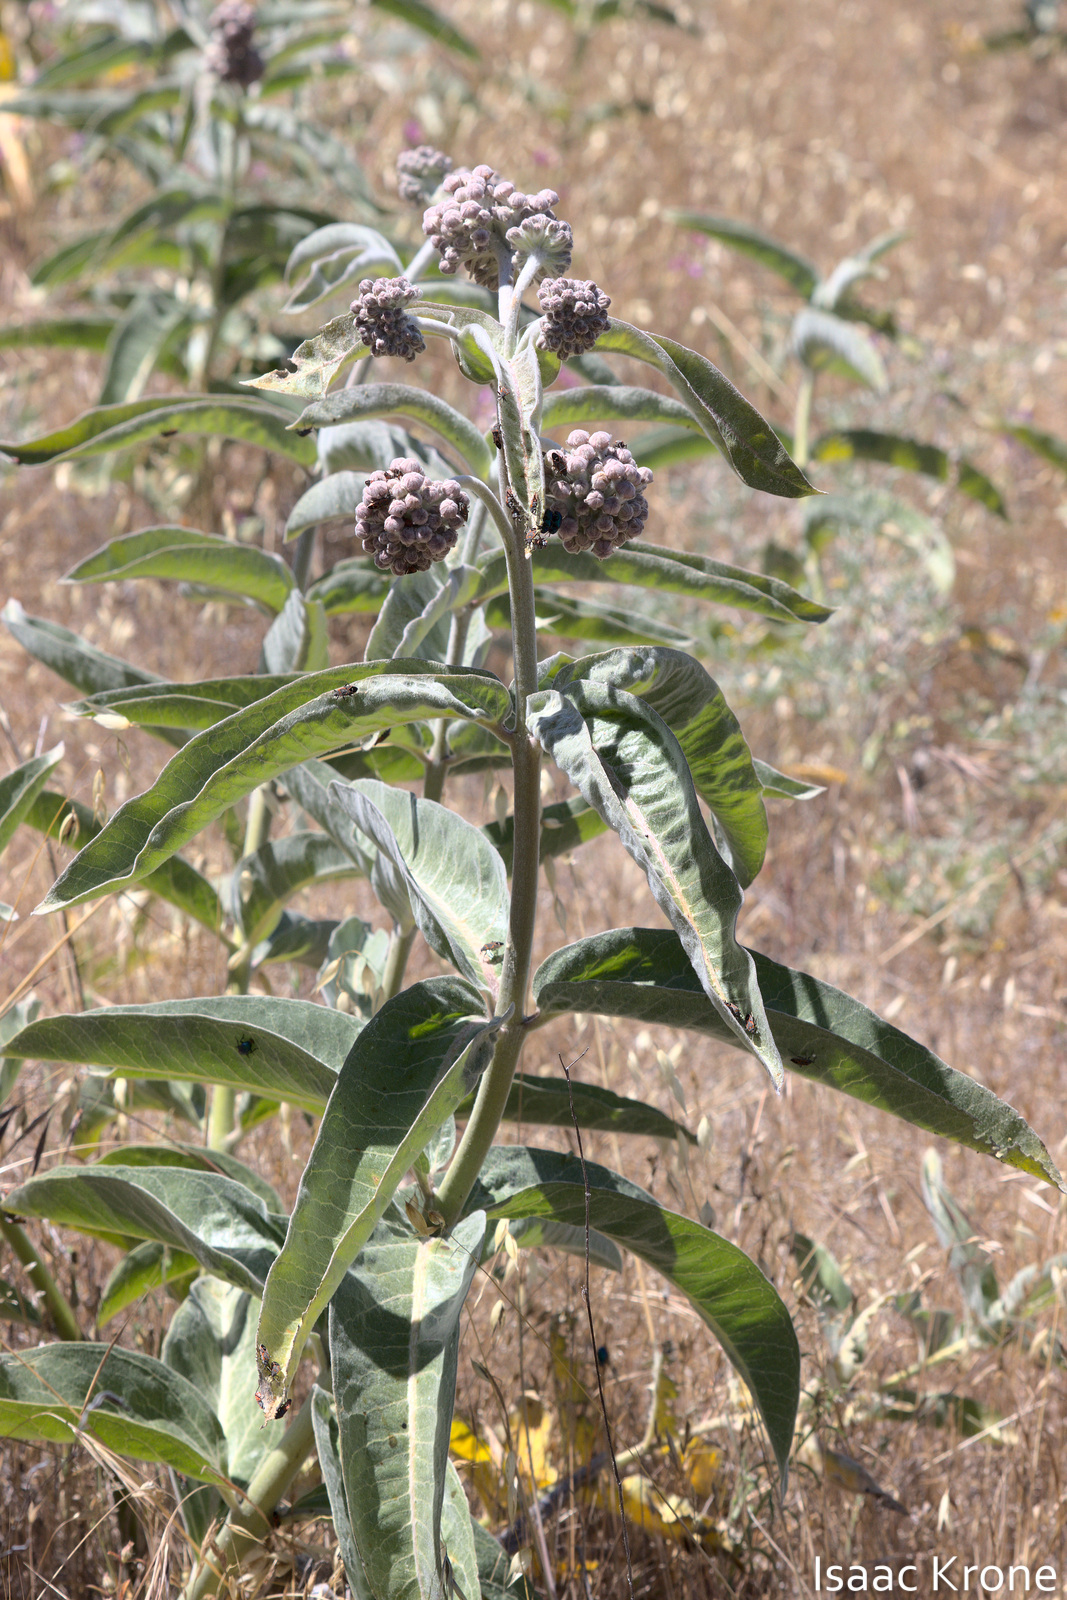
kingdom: Plantae
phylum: Tracheophyta
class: Magnoliopsida
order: Gentianales
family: Apocynaceae
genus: Asclepias
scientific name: Asclepias eriocarpa
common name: Indian milkweed
